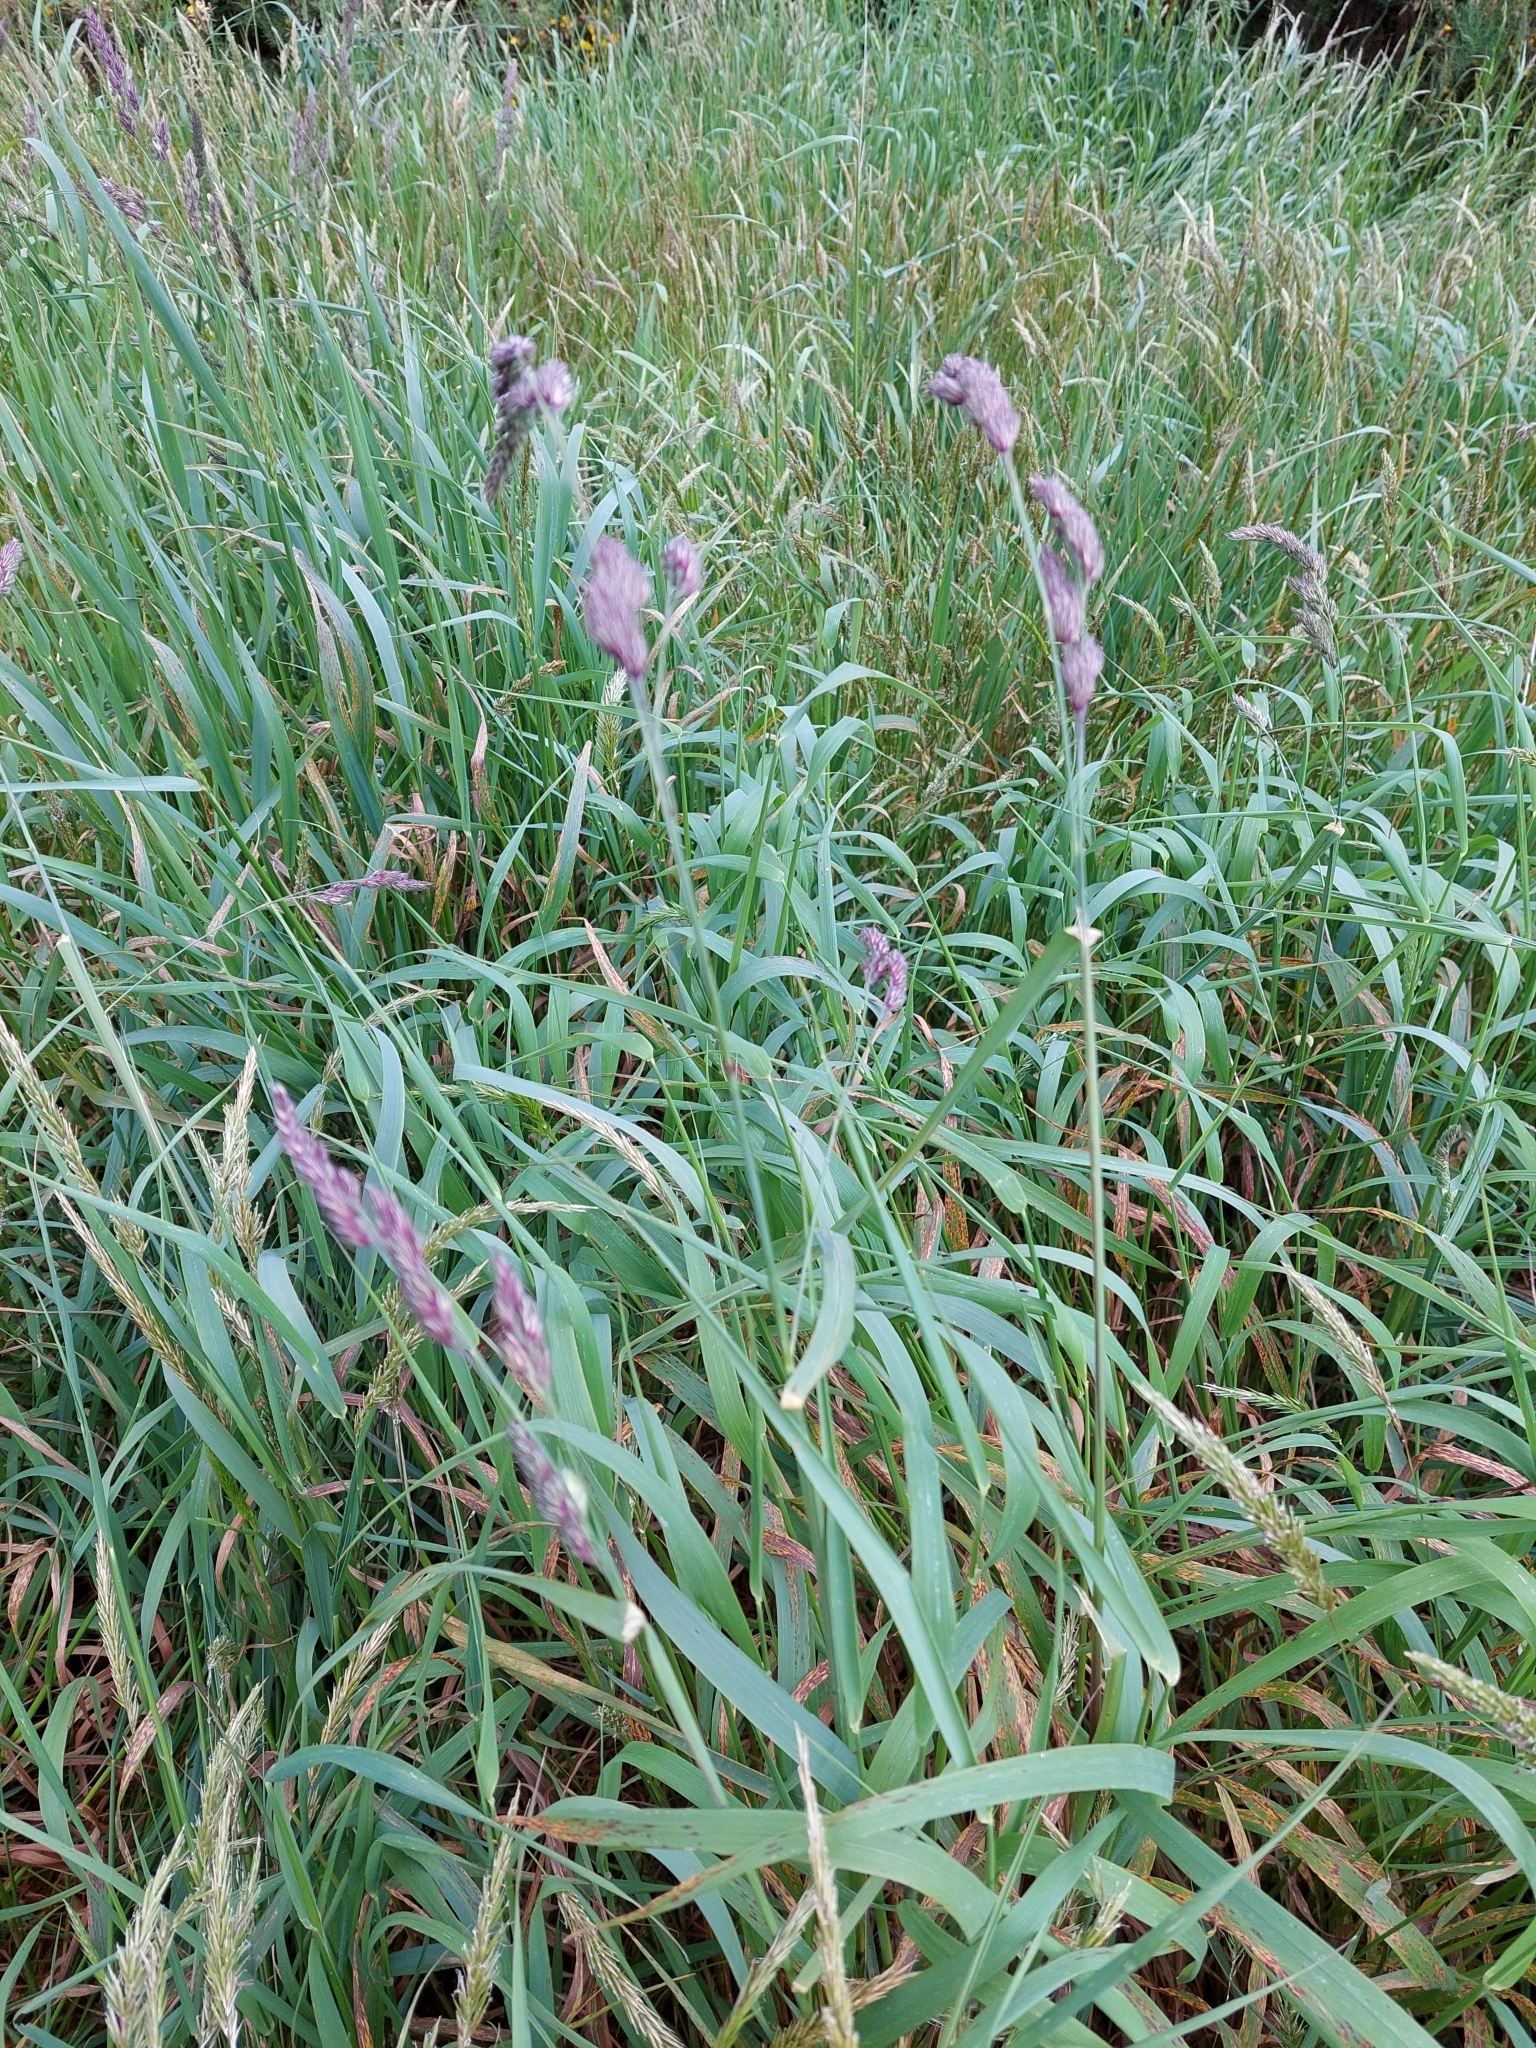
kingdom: Plantae
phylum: Tracheophyta
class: Liliopsida
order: Poales
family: Poaceae
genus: Dactylis
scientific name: Dactylis glomerata
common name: Orchardgrass
